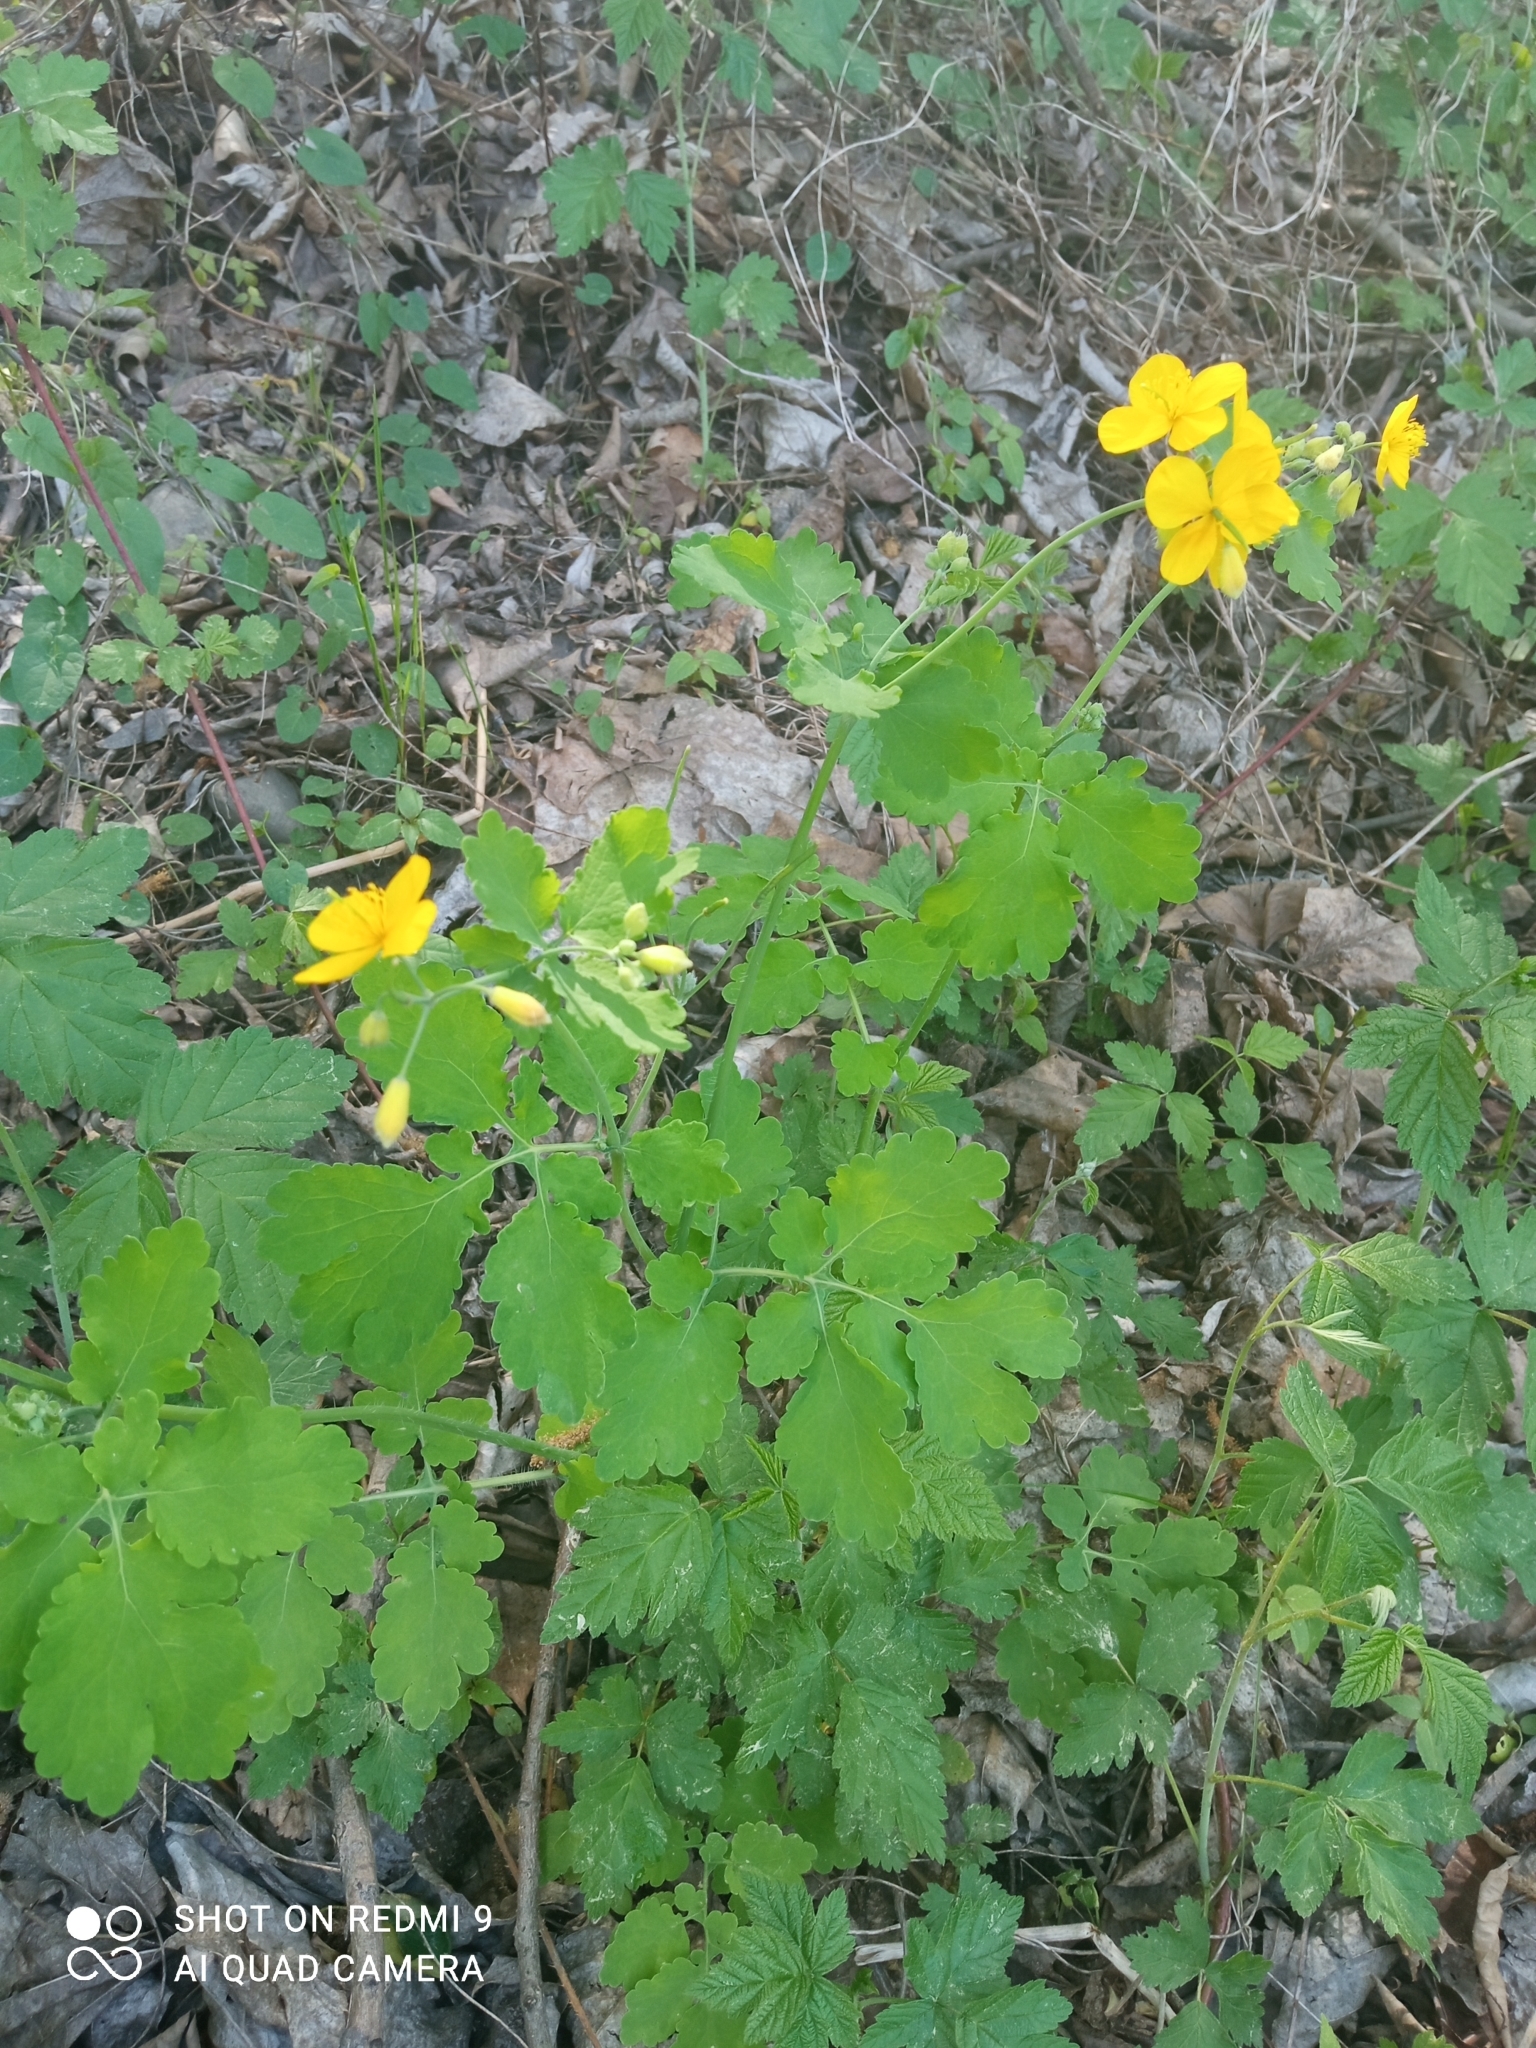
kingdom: Plantae
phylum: Tracheophyta
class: Magnoliopsida
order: Ranunculales
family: Papaveraceae
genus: Chelidonium
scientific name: Chelidonium majus
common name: Greater celandine
